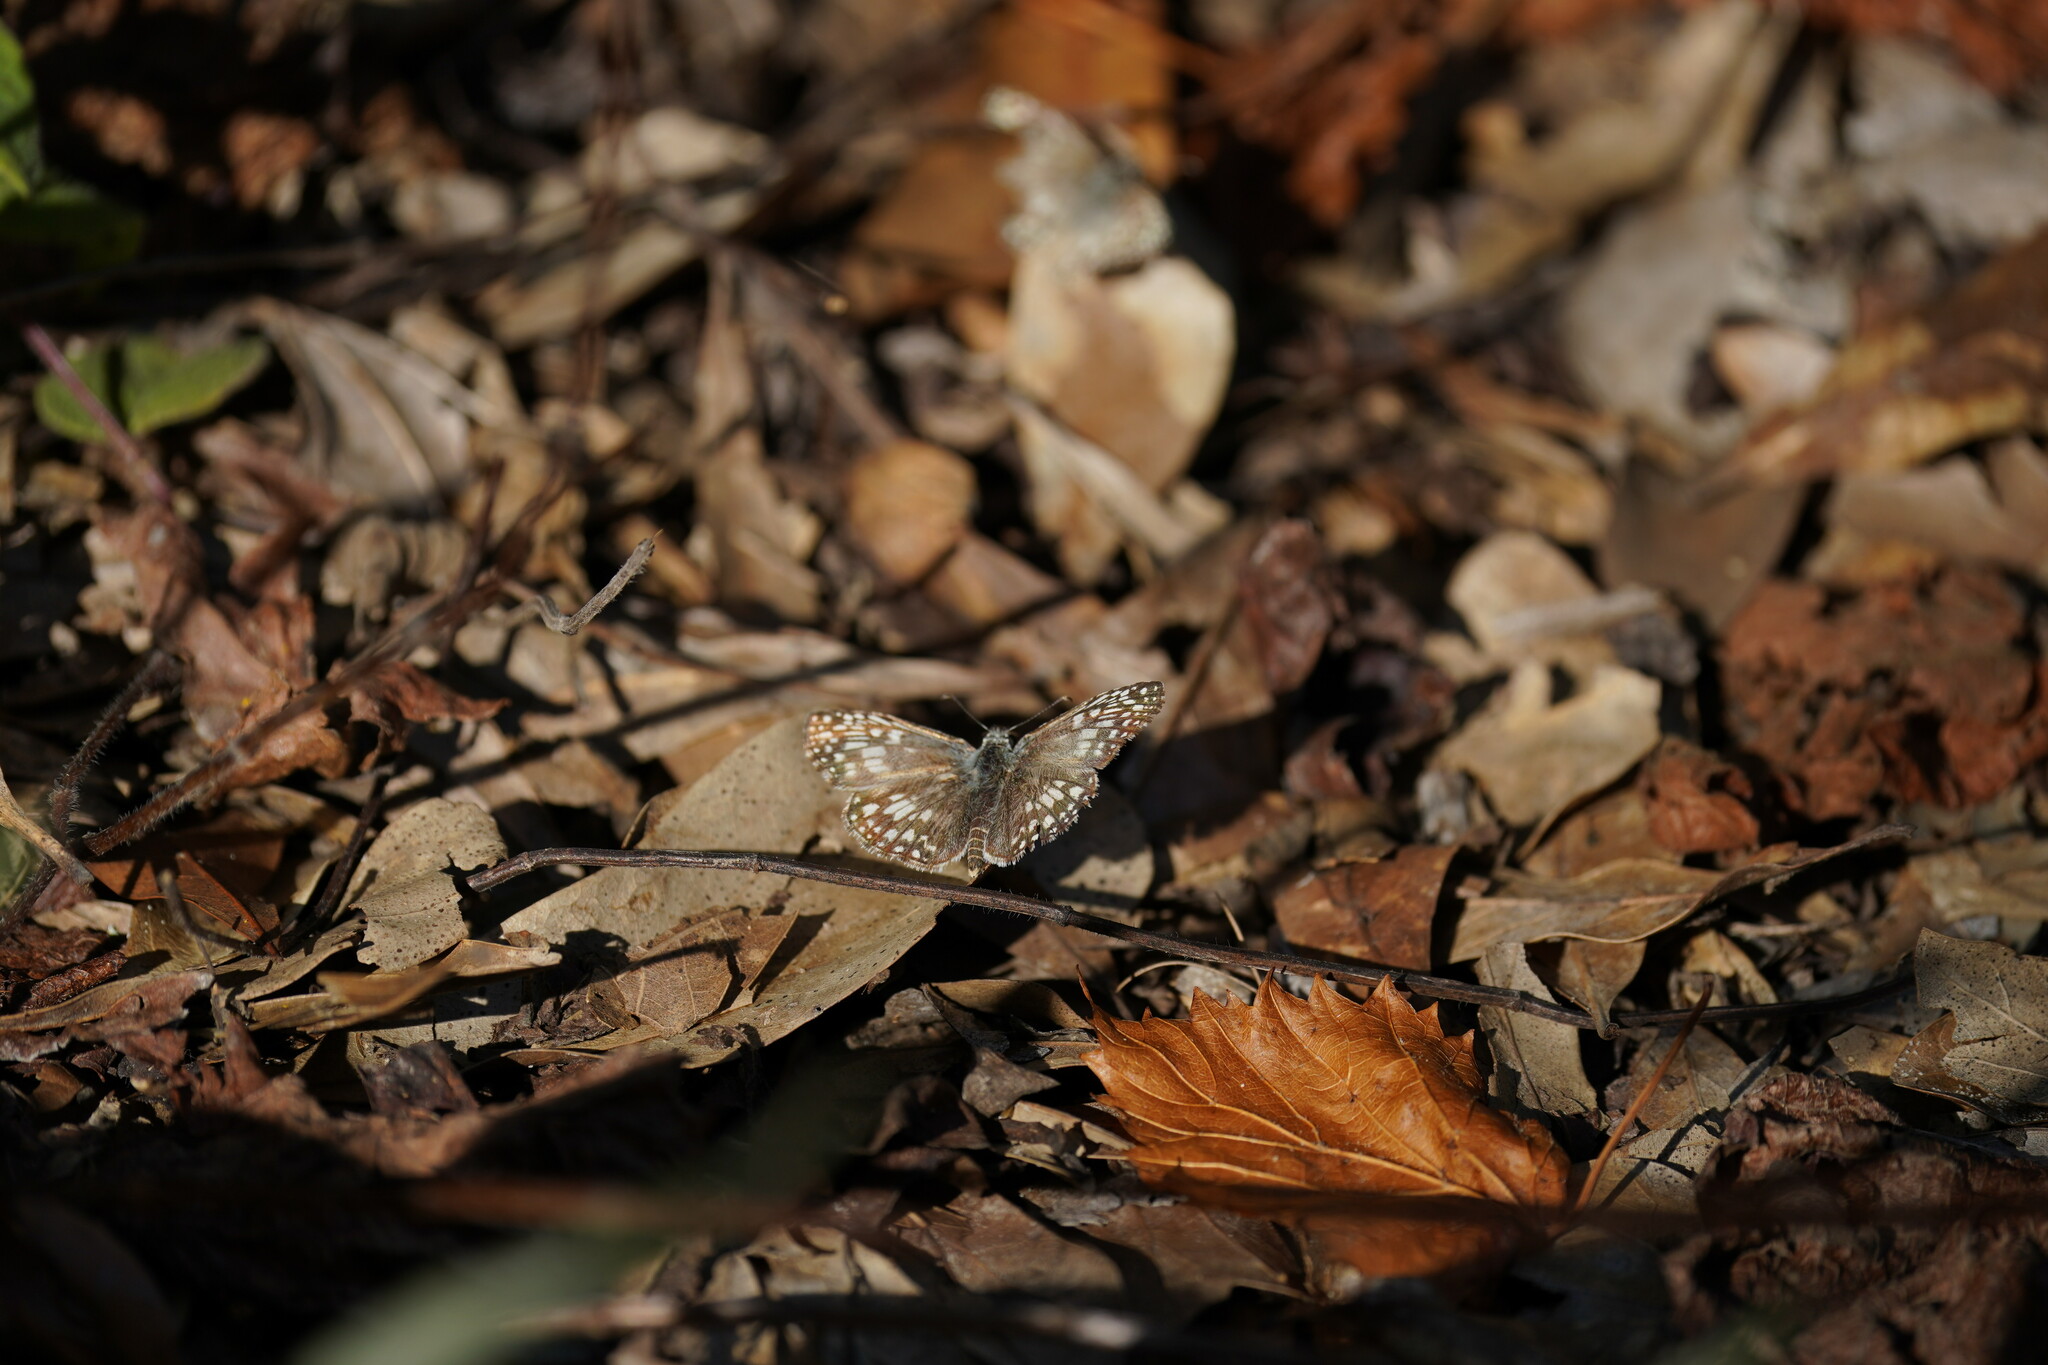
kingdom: Animalia
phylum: Arthropoda
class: Insecta
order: Lepidoptera
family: Hesperiidae
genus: Pyrgus
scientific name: Pyrgus oileus
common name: Tropical checkered-skipper
